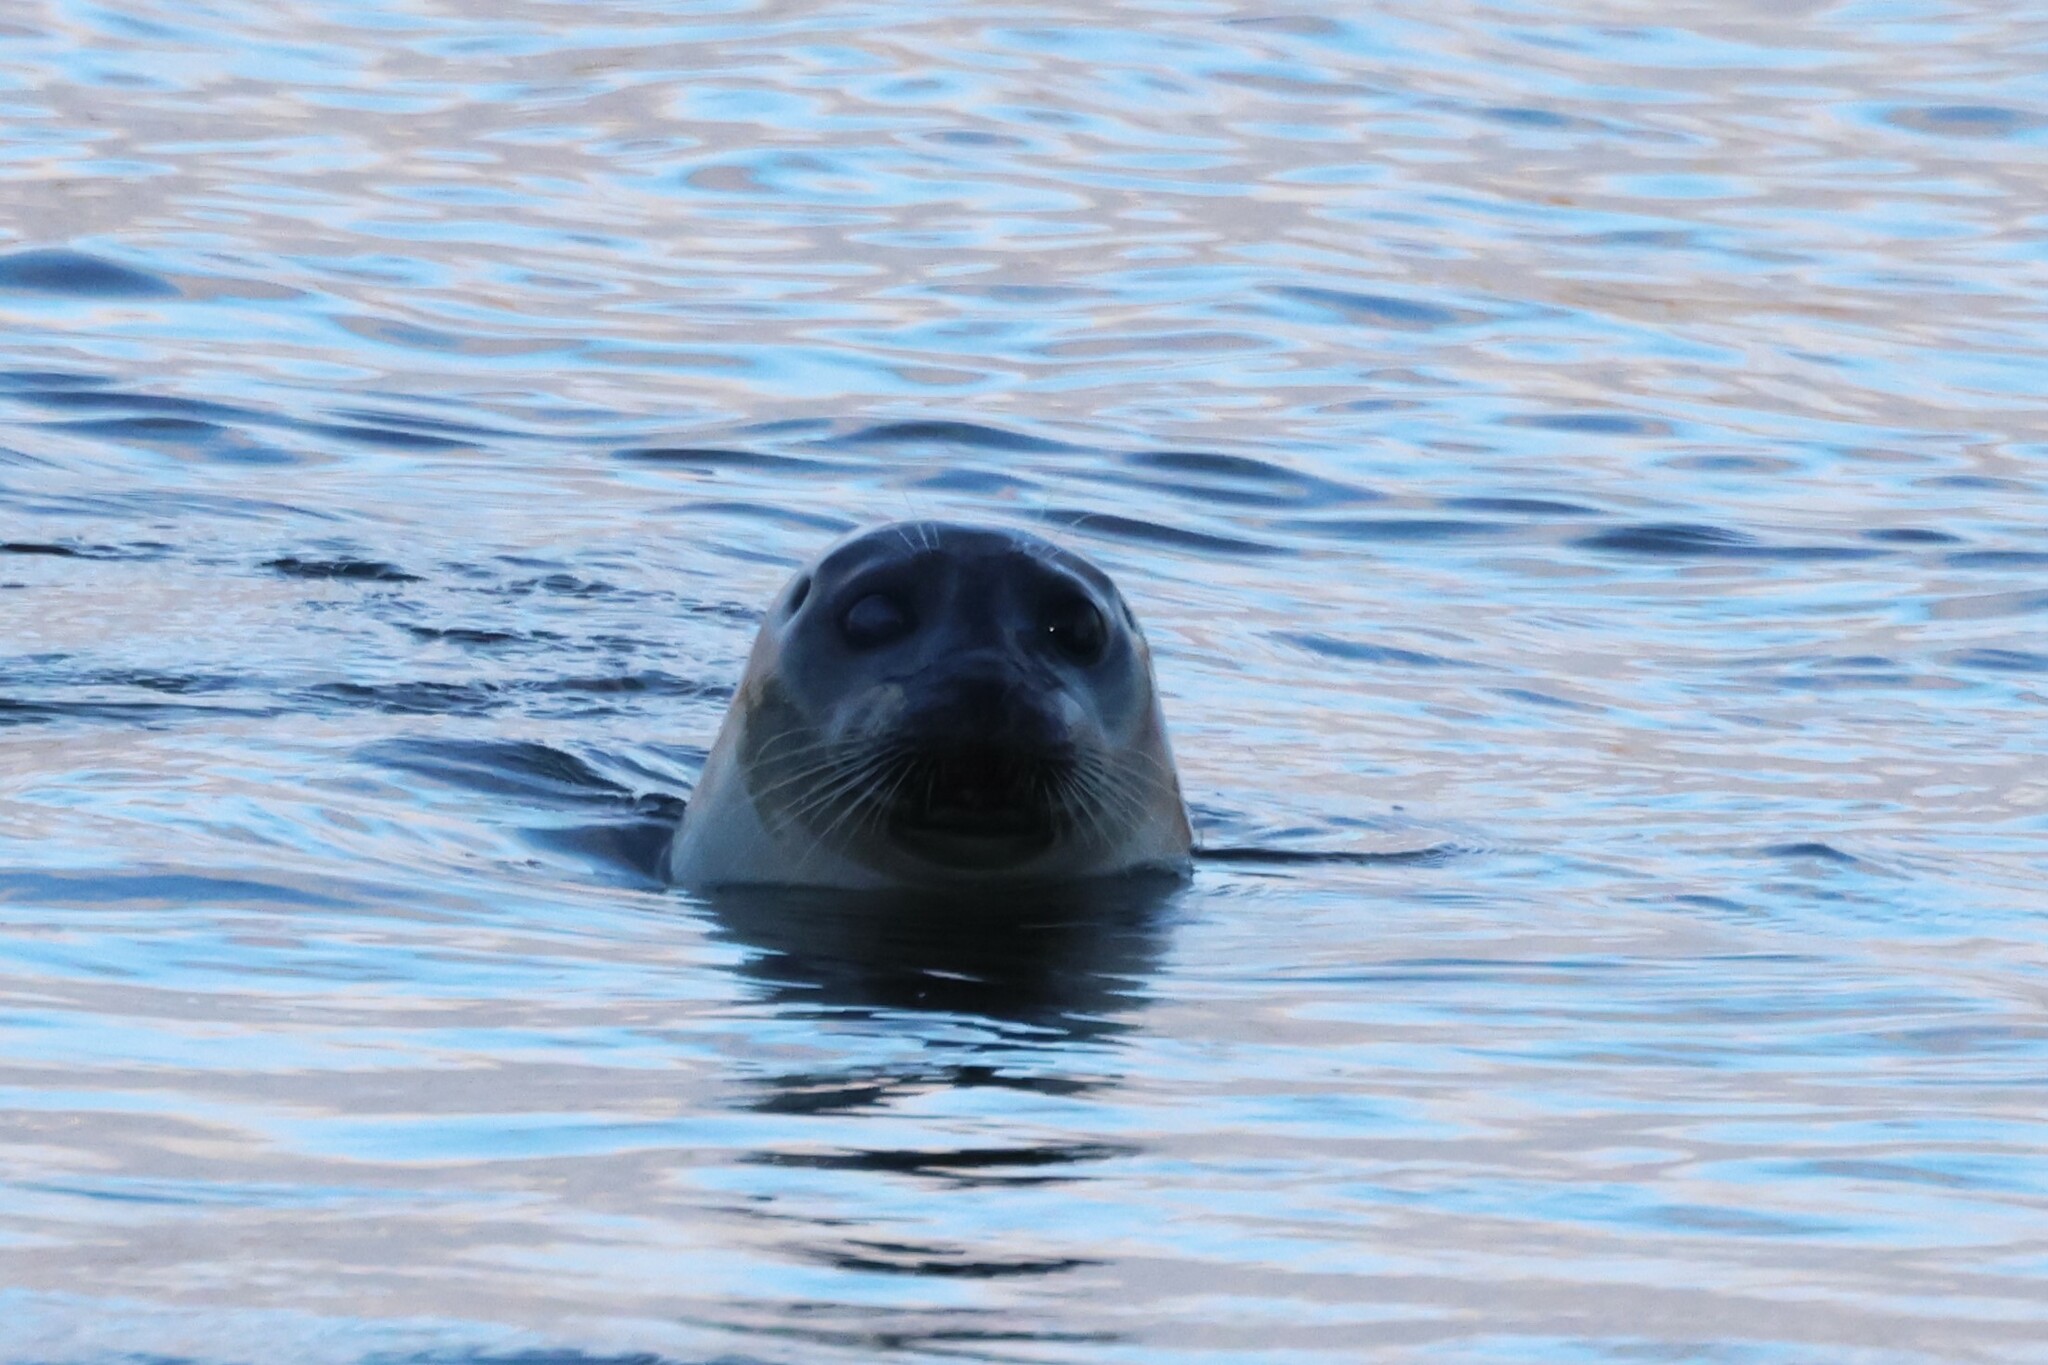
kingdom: Animalia
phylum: Chordata
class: Mammalia
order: Carnivora
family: Phocidae
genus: Phoca
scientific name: Phoca vitulina
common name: Harbor seal
